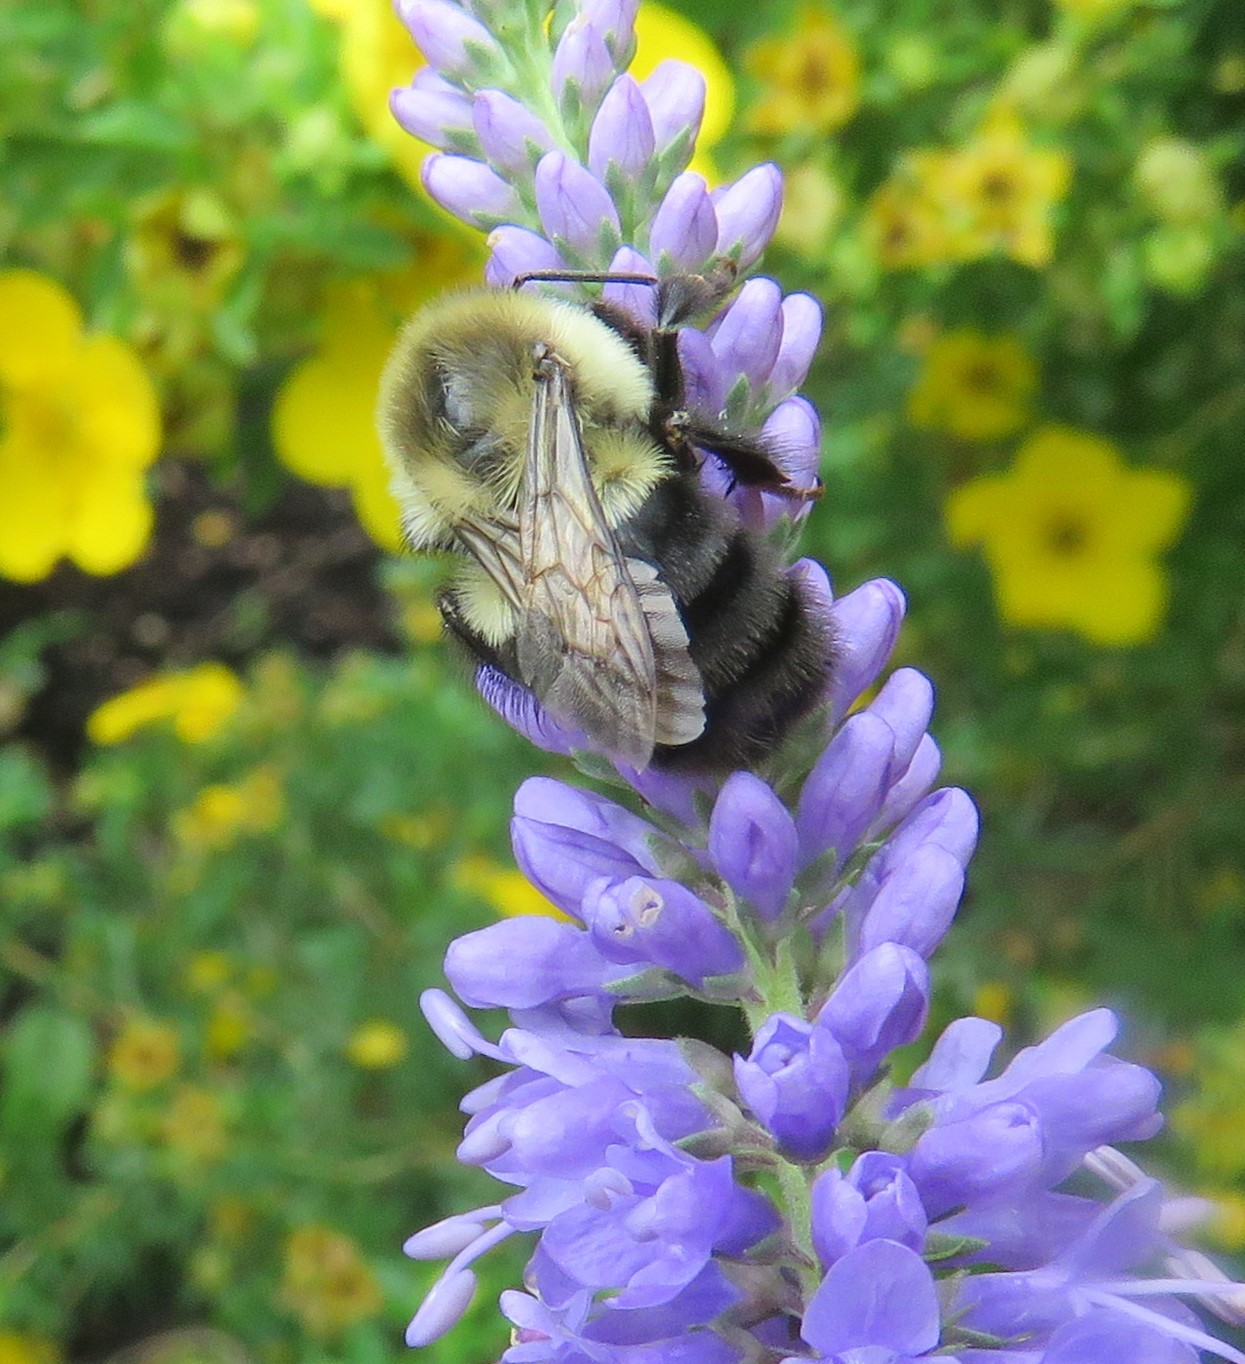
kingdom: Animalia
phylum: Arthropoda
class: Insecta
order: Hymenoptera
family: Apidae
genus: Bombus
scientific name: Bombus impatiens
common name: Common eastern bumble bee
